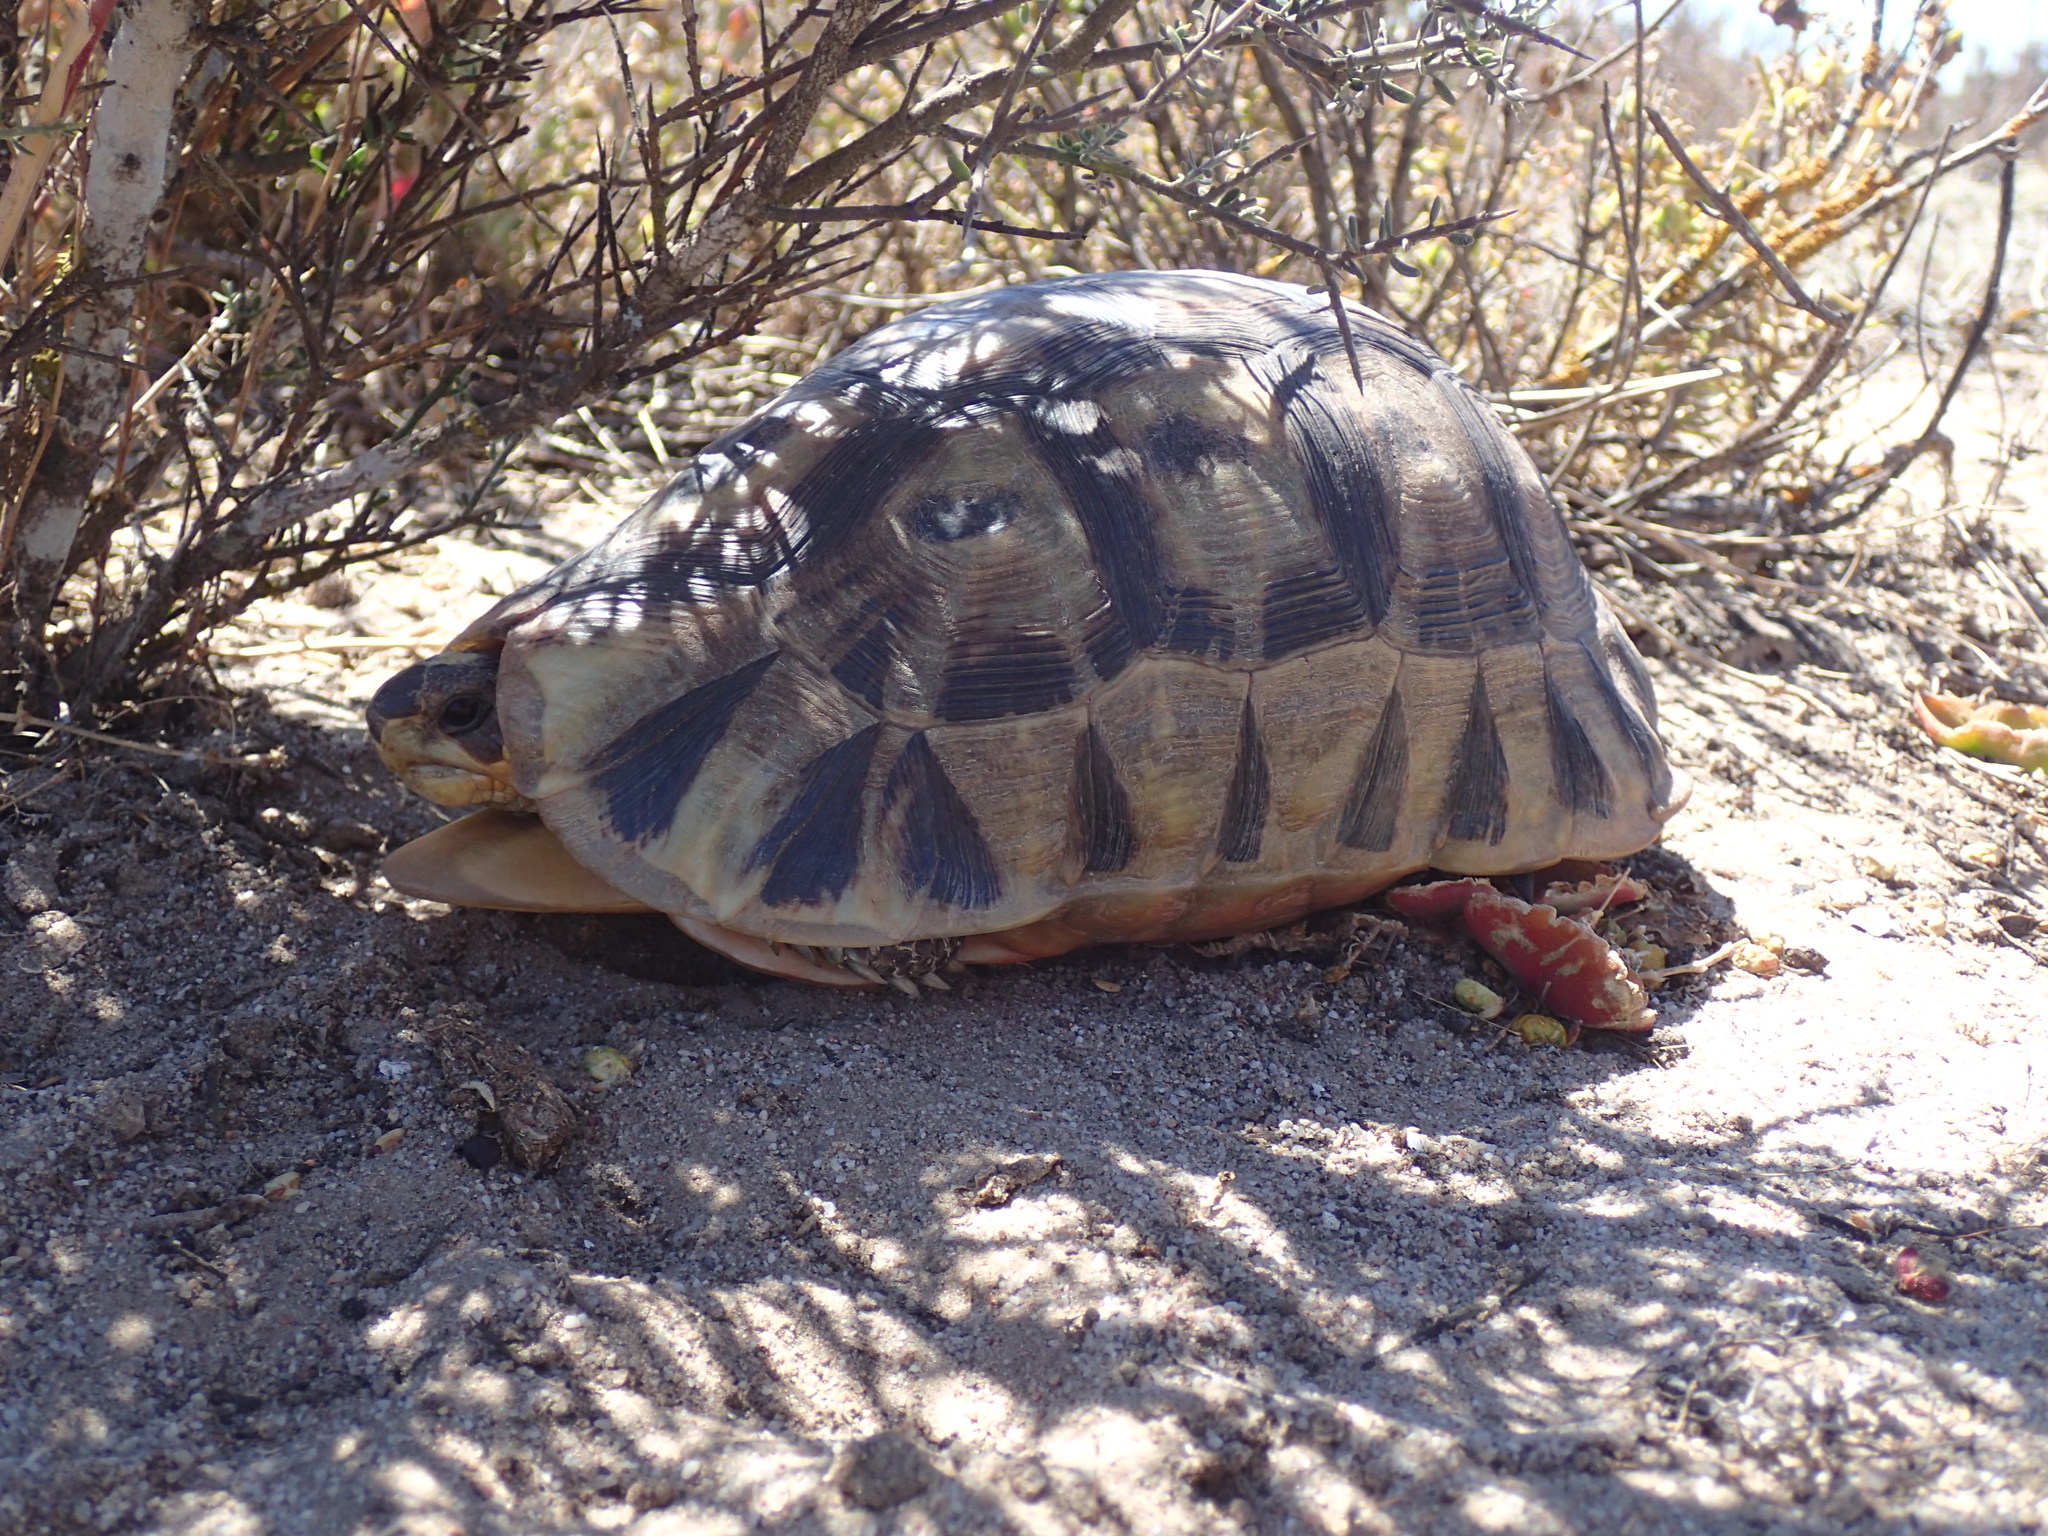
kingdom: Animalia
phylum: Chordata
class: Testudines
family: Testudinidae
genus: Chersina
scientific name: Chersina angulata
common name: South african bowsprit tortoise
